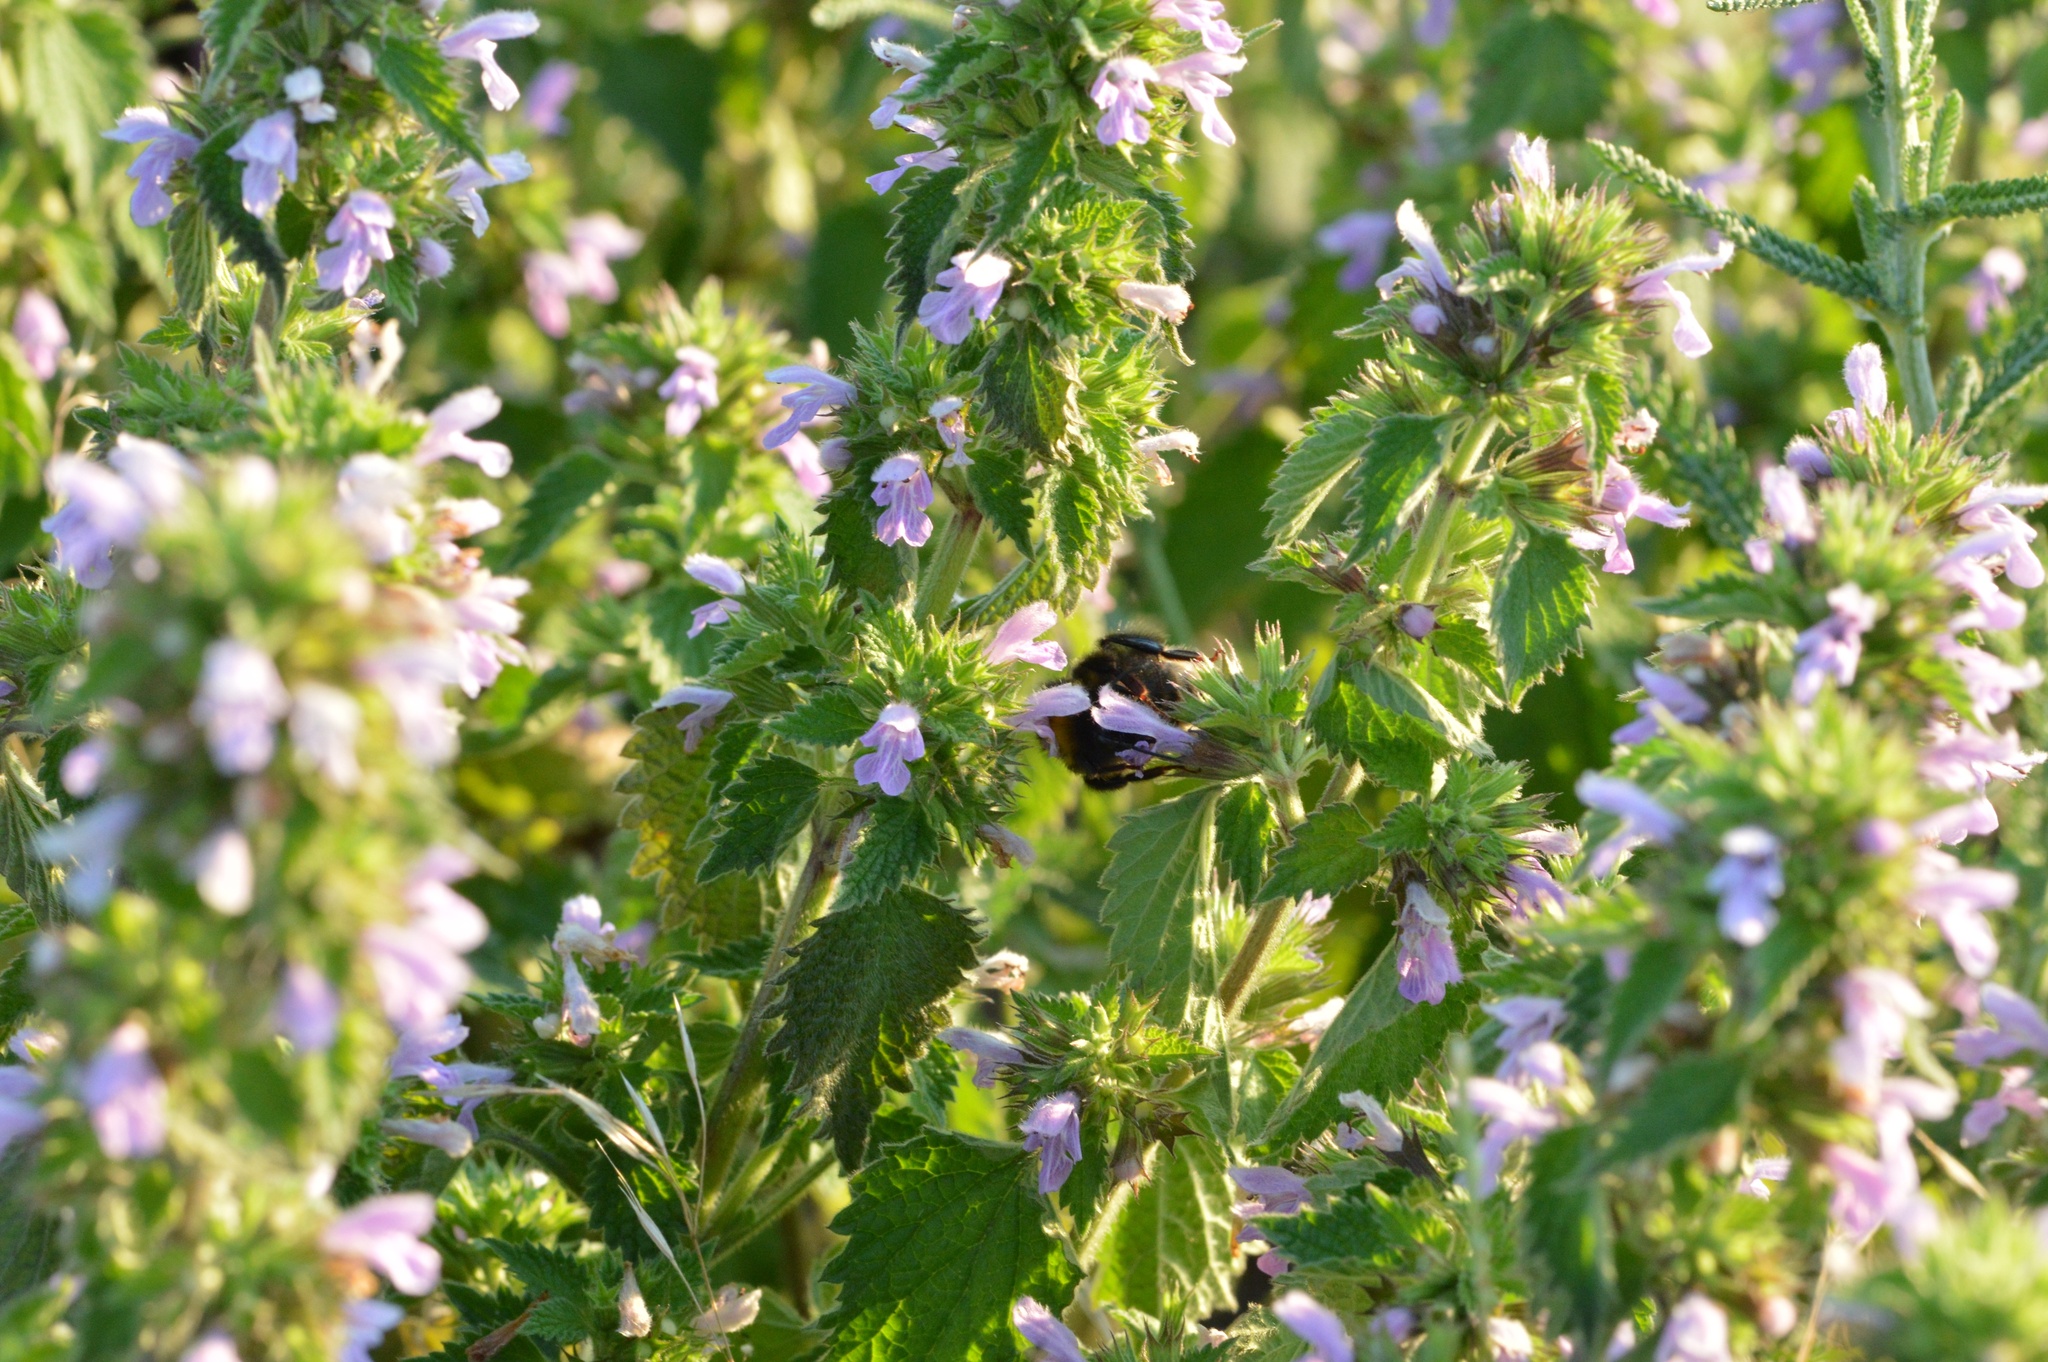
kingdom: Plantae
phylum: Tracheophyta
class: Magnoliopsida
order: Lamiales
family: Lamiaceae
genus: Ballota
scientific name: Ballota nigra
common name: Black horehound
